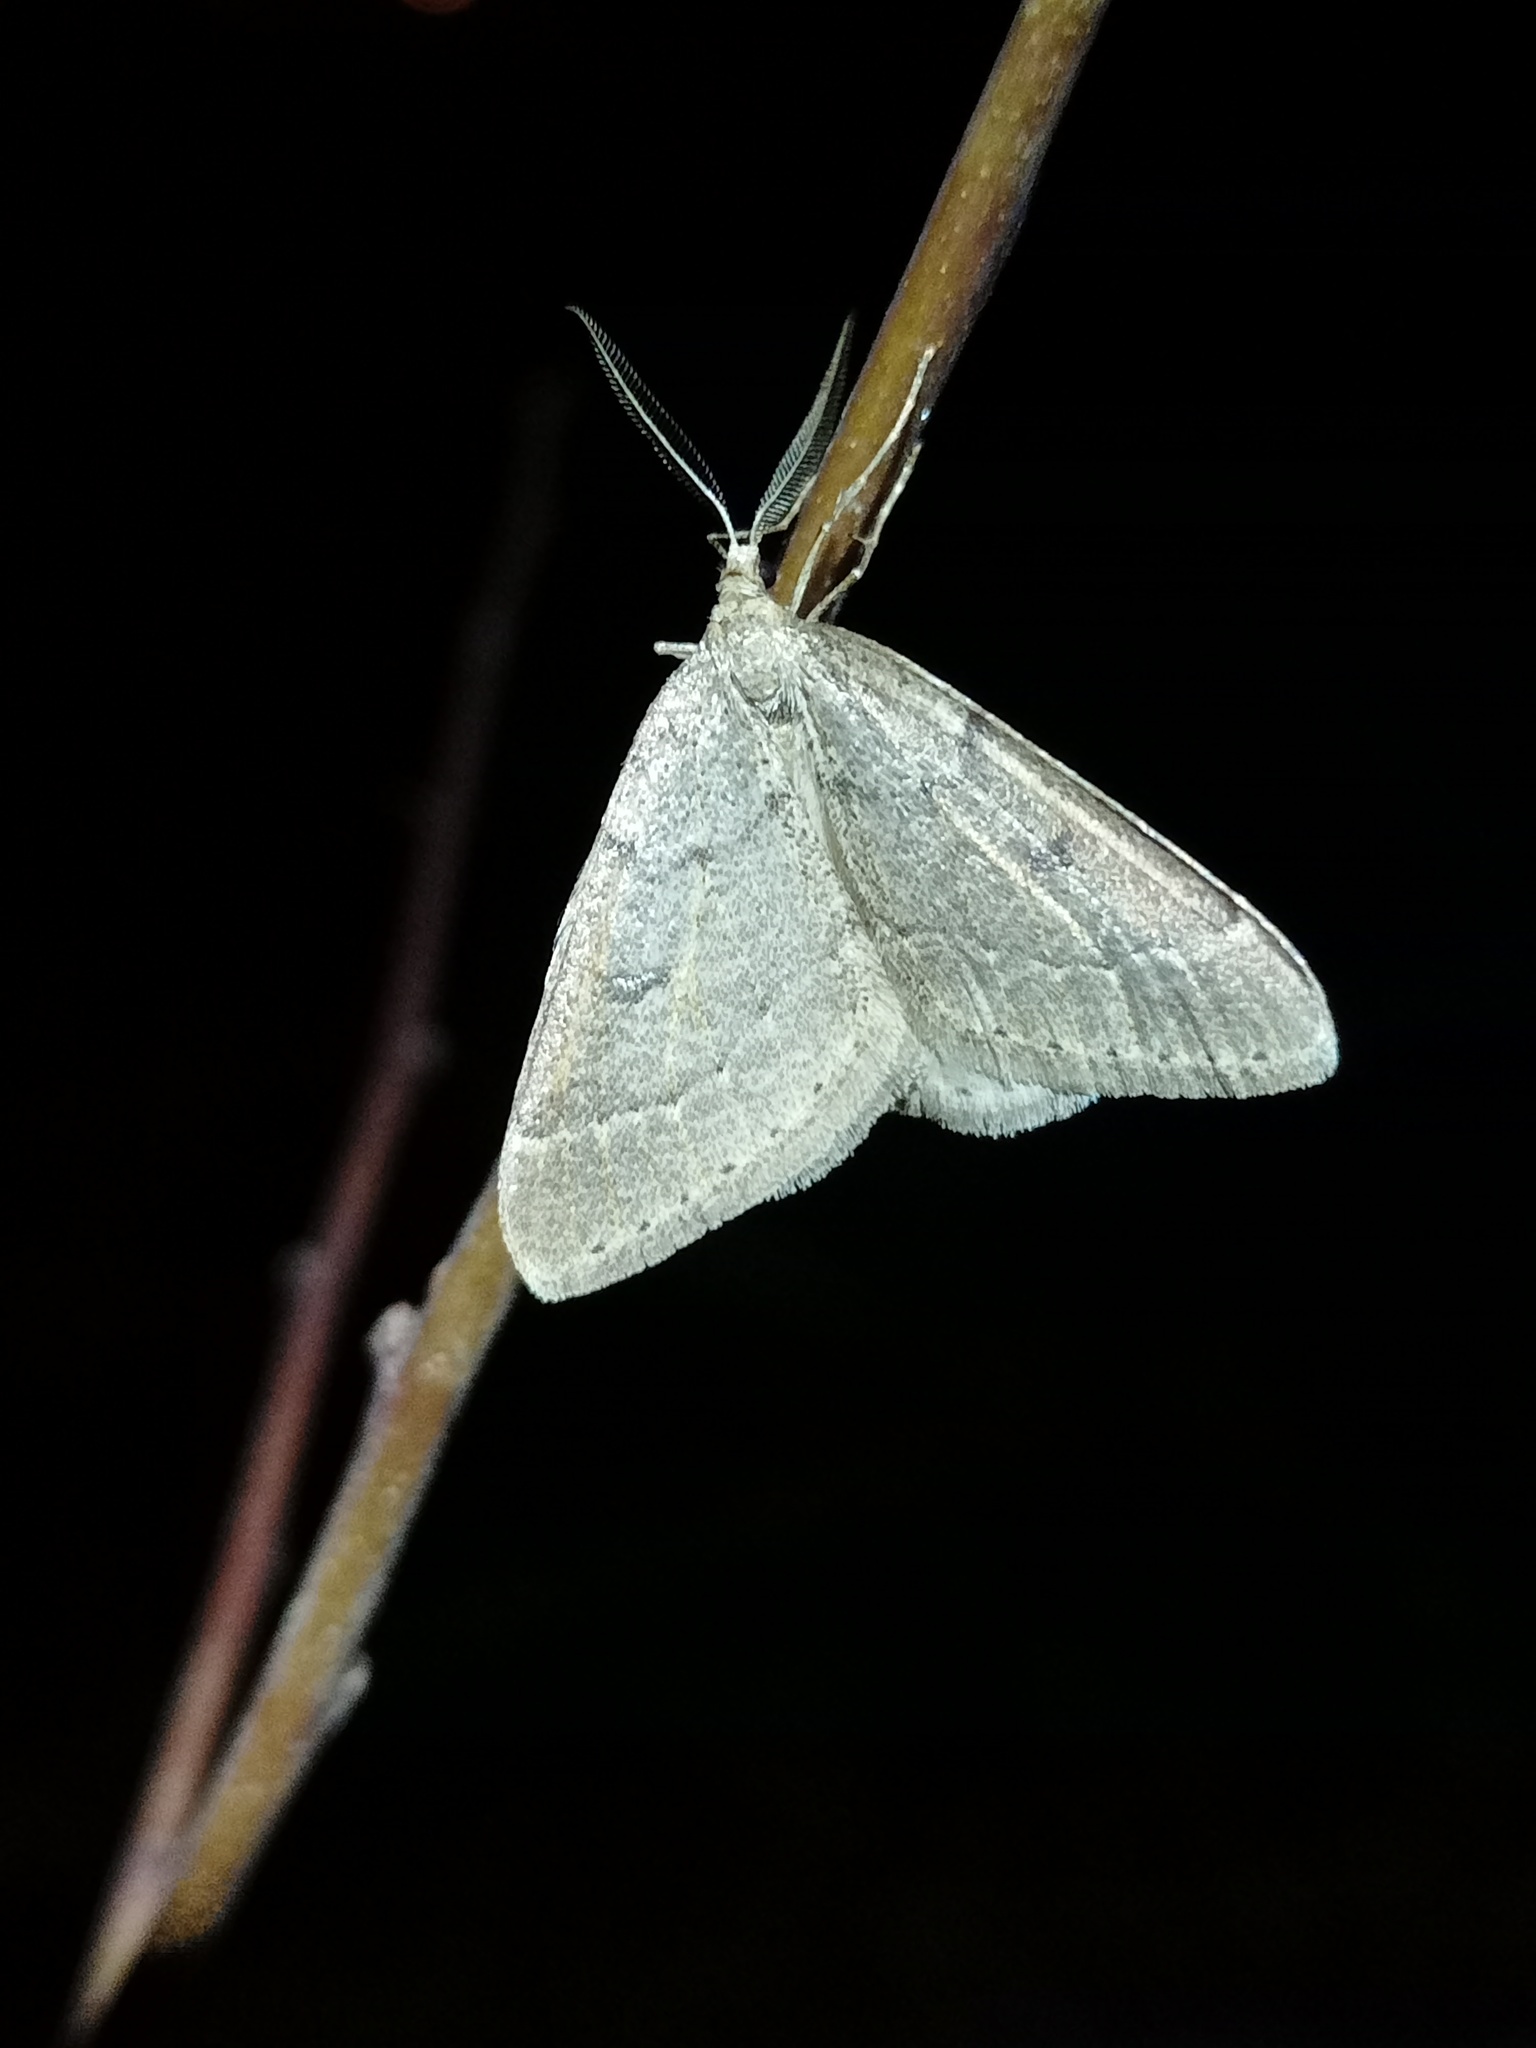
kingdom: Animalia
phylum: Arthropoda
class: Insecta
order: Lepidoptera
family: Geometridae
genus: Theria
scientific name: Theria rupicapraria
